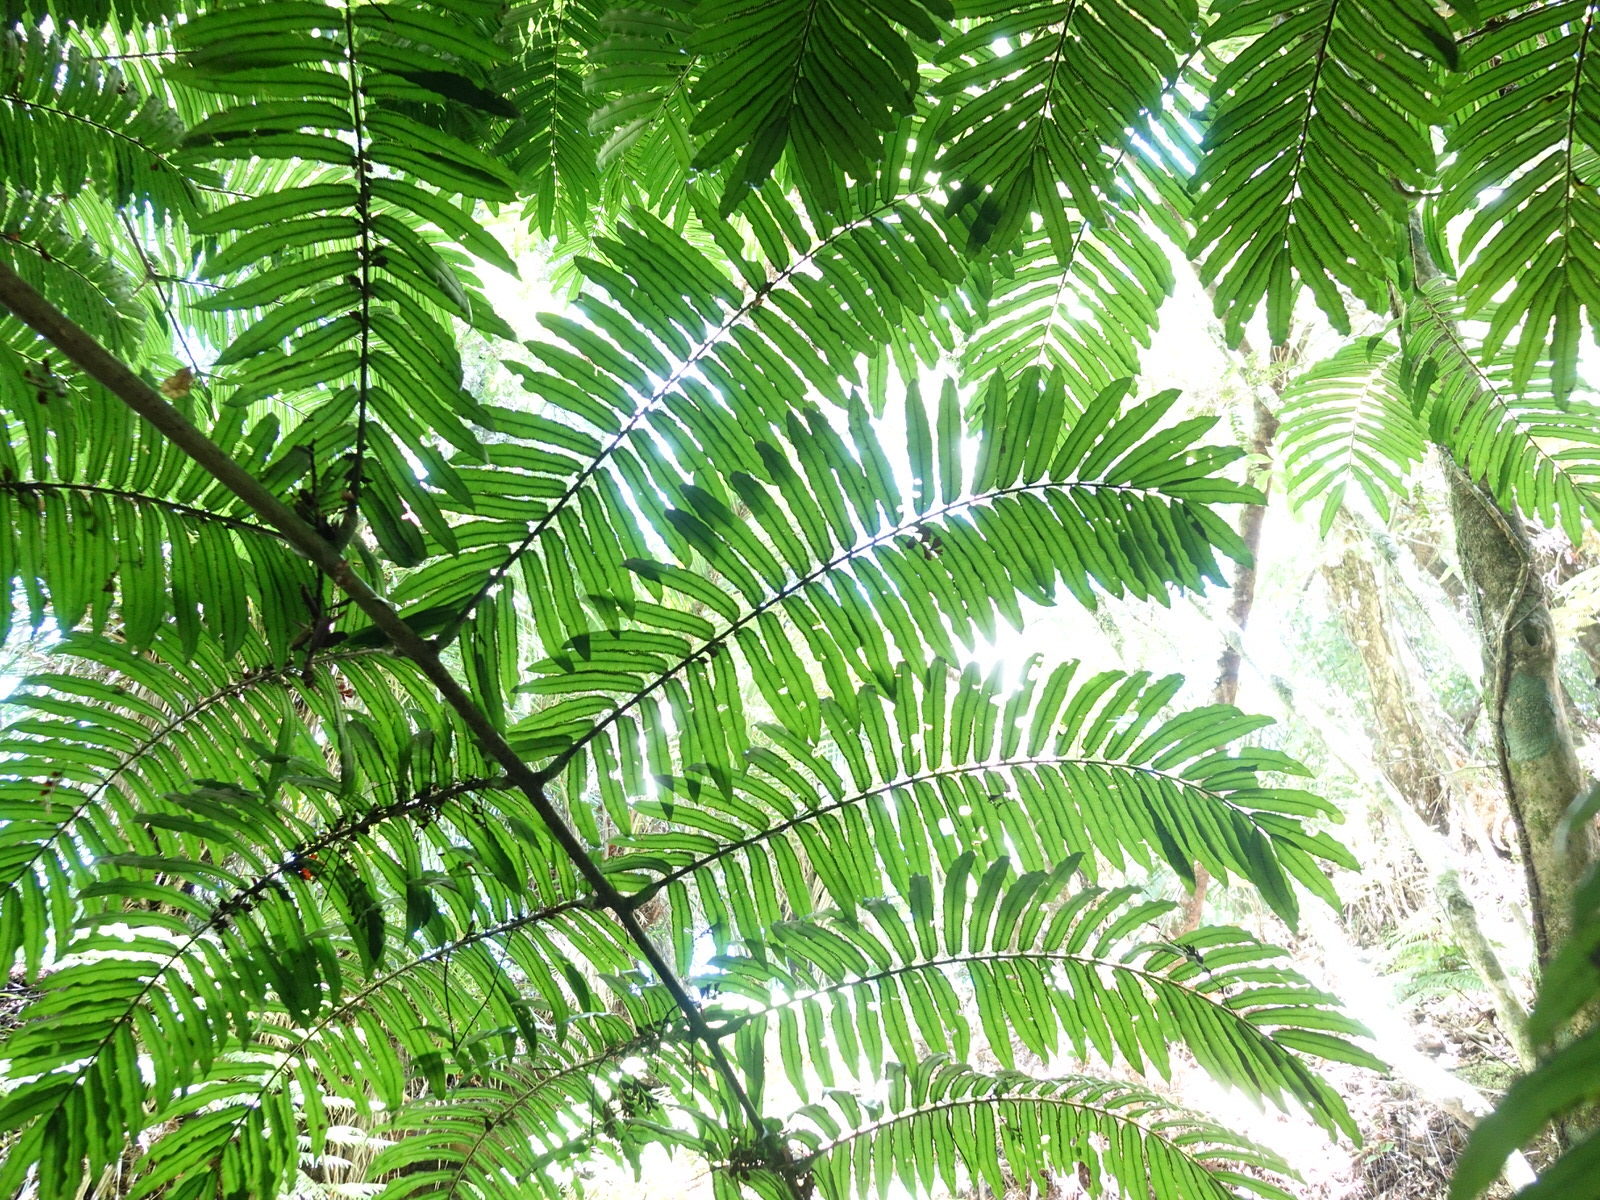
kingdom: Plantae
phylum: Tracheophyta
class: Polypodiopsida
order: Marattiales
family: Marattiaceae
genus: Ptisana
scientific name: Ptisana salicina
